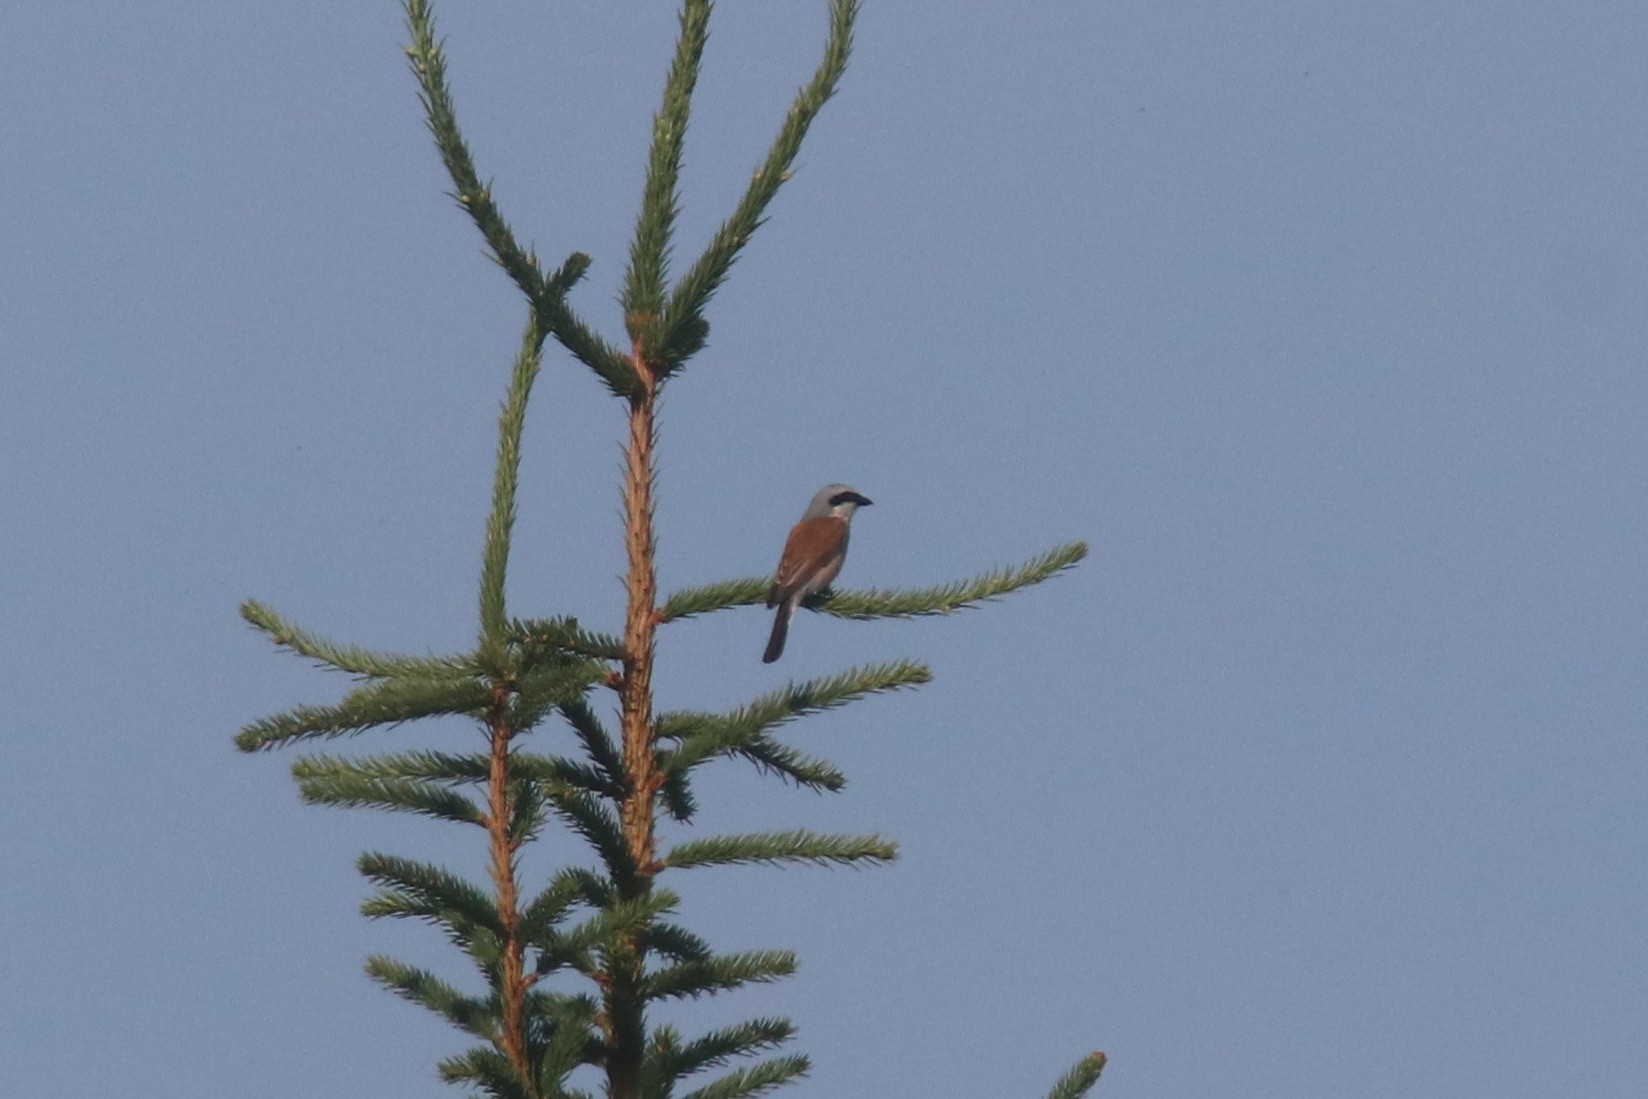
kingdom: Animalia
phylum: Chordata
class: Aves
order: Passeriformes
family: Laniidae
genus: Lanius
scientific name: Lanius collurio
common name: Red-backed shrike
